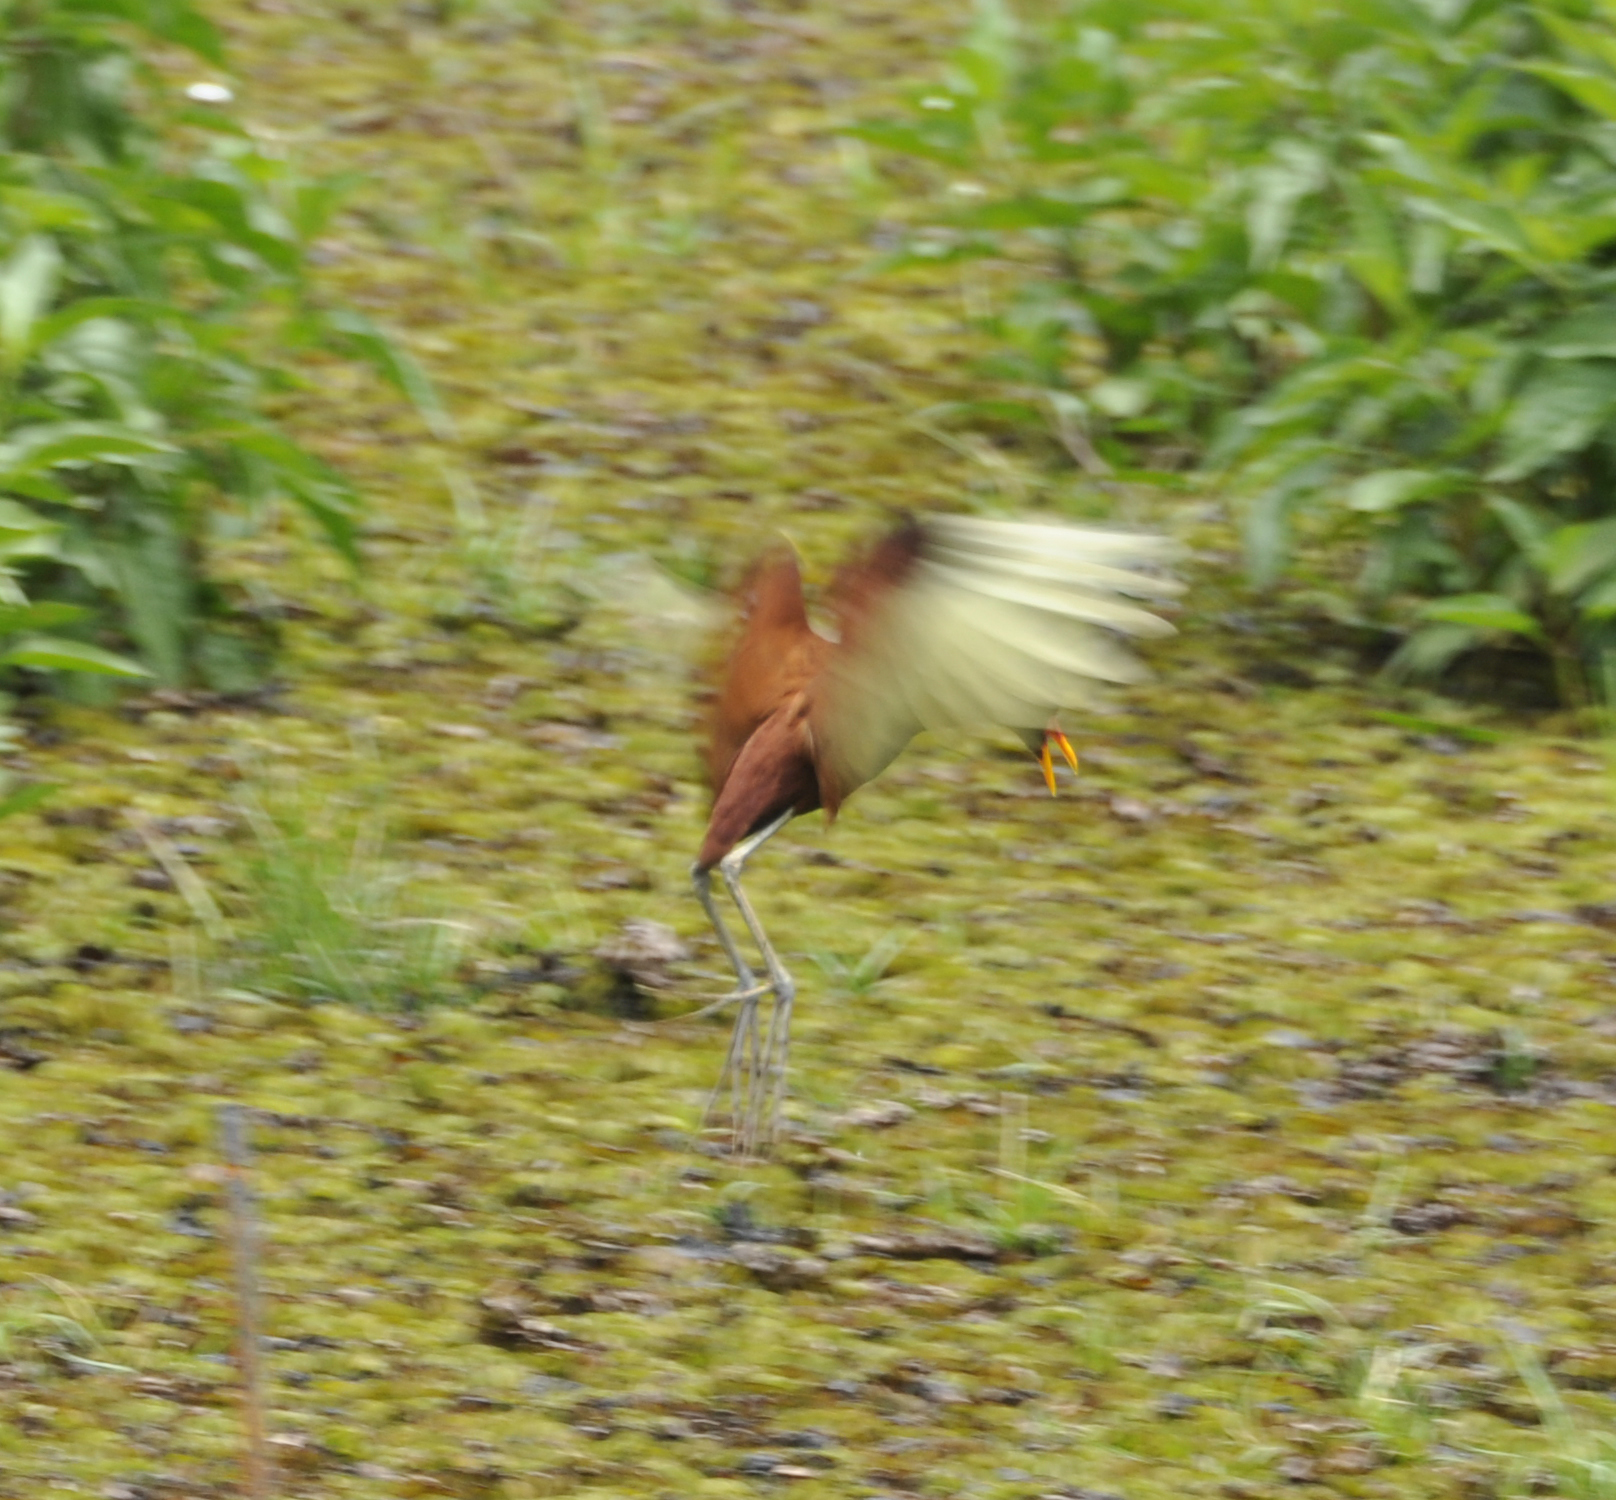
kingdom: Animalia
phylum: Chordata
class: Aves
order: Charadriiformes
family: Jacanidae
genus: Jacana
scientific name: Jacana jacana
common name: Wattled jacana
